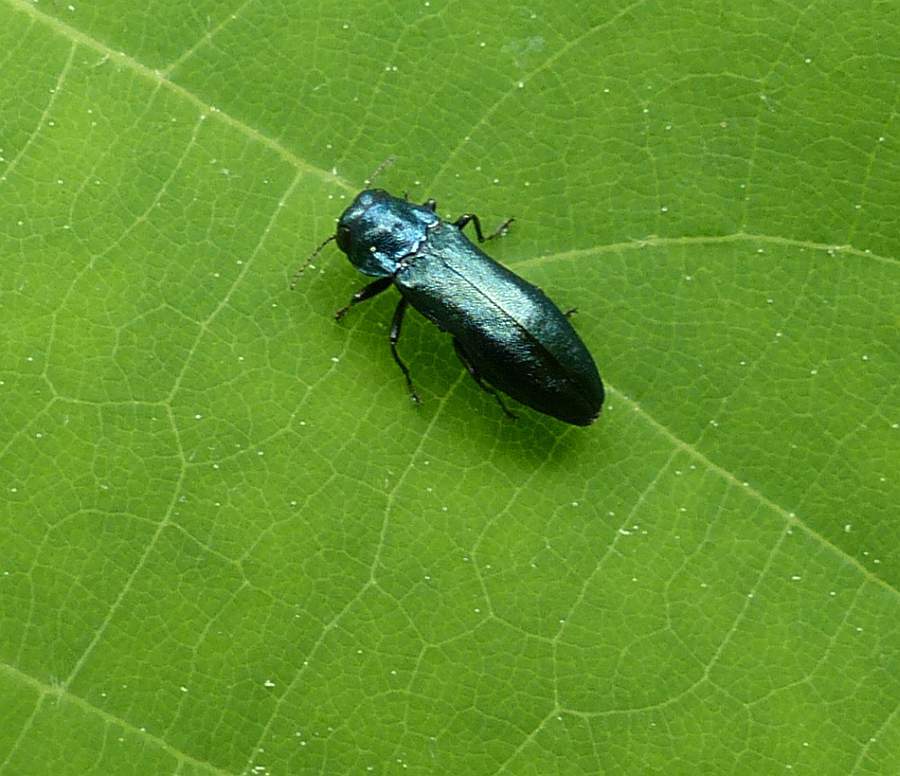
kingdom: Animalia
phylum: Arthropoda
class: Insecta
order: Coleoptera
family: Buprestidae
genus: Agrilus
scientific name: Agrilus cyanescens
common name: Bluish borer beetle
